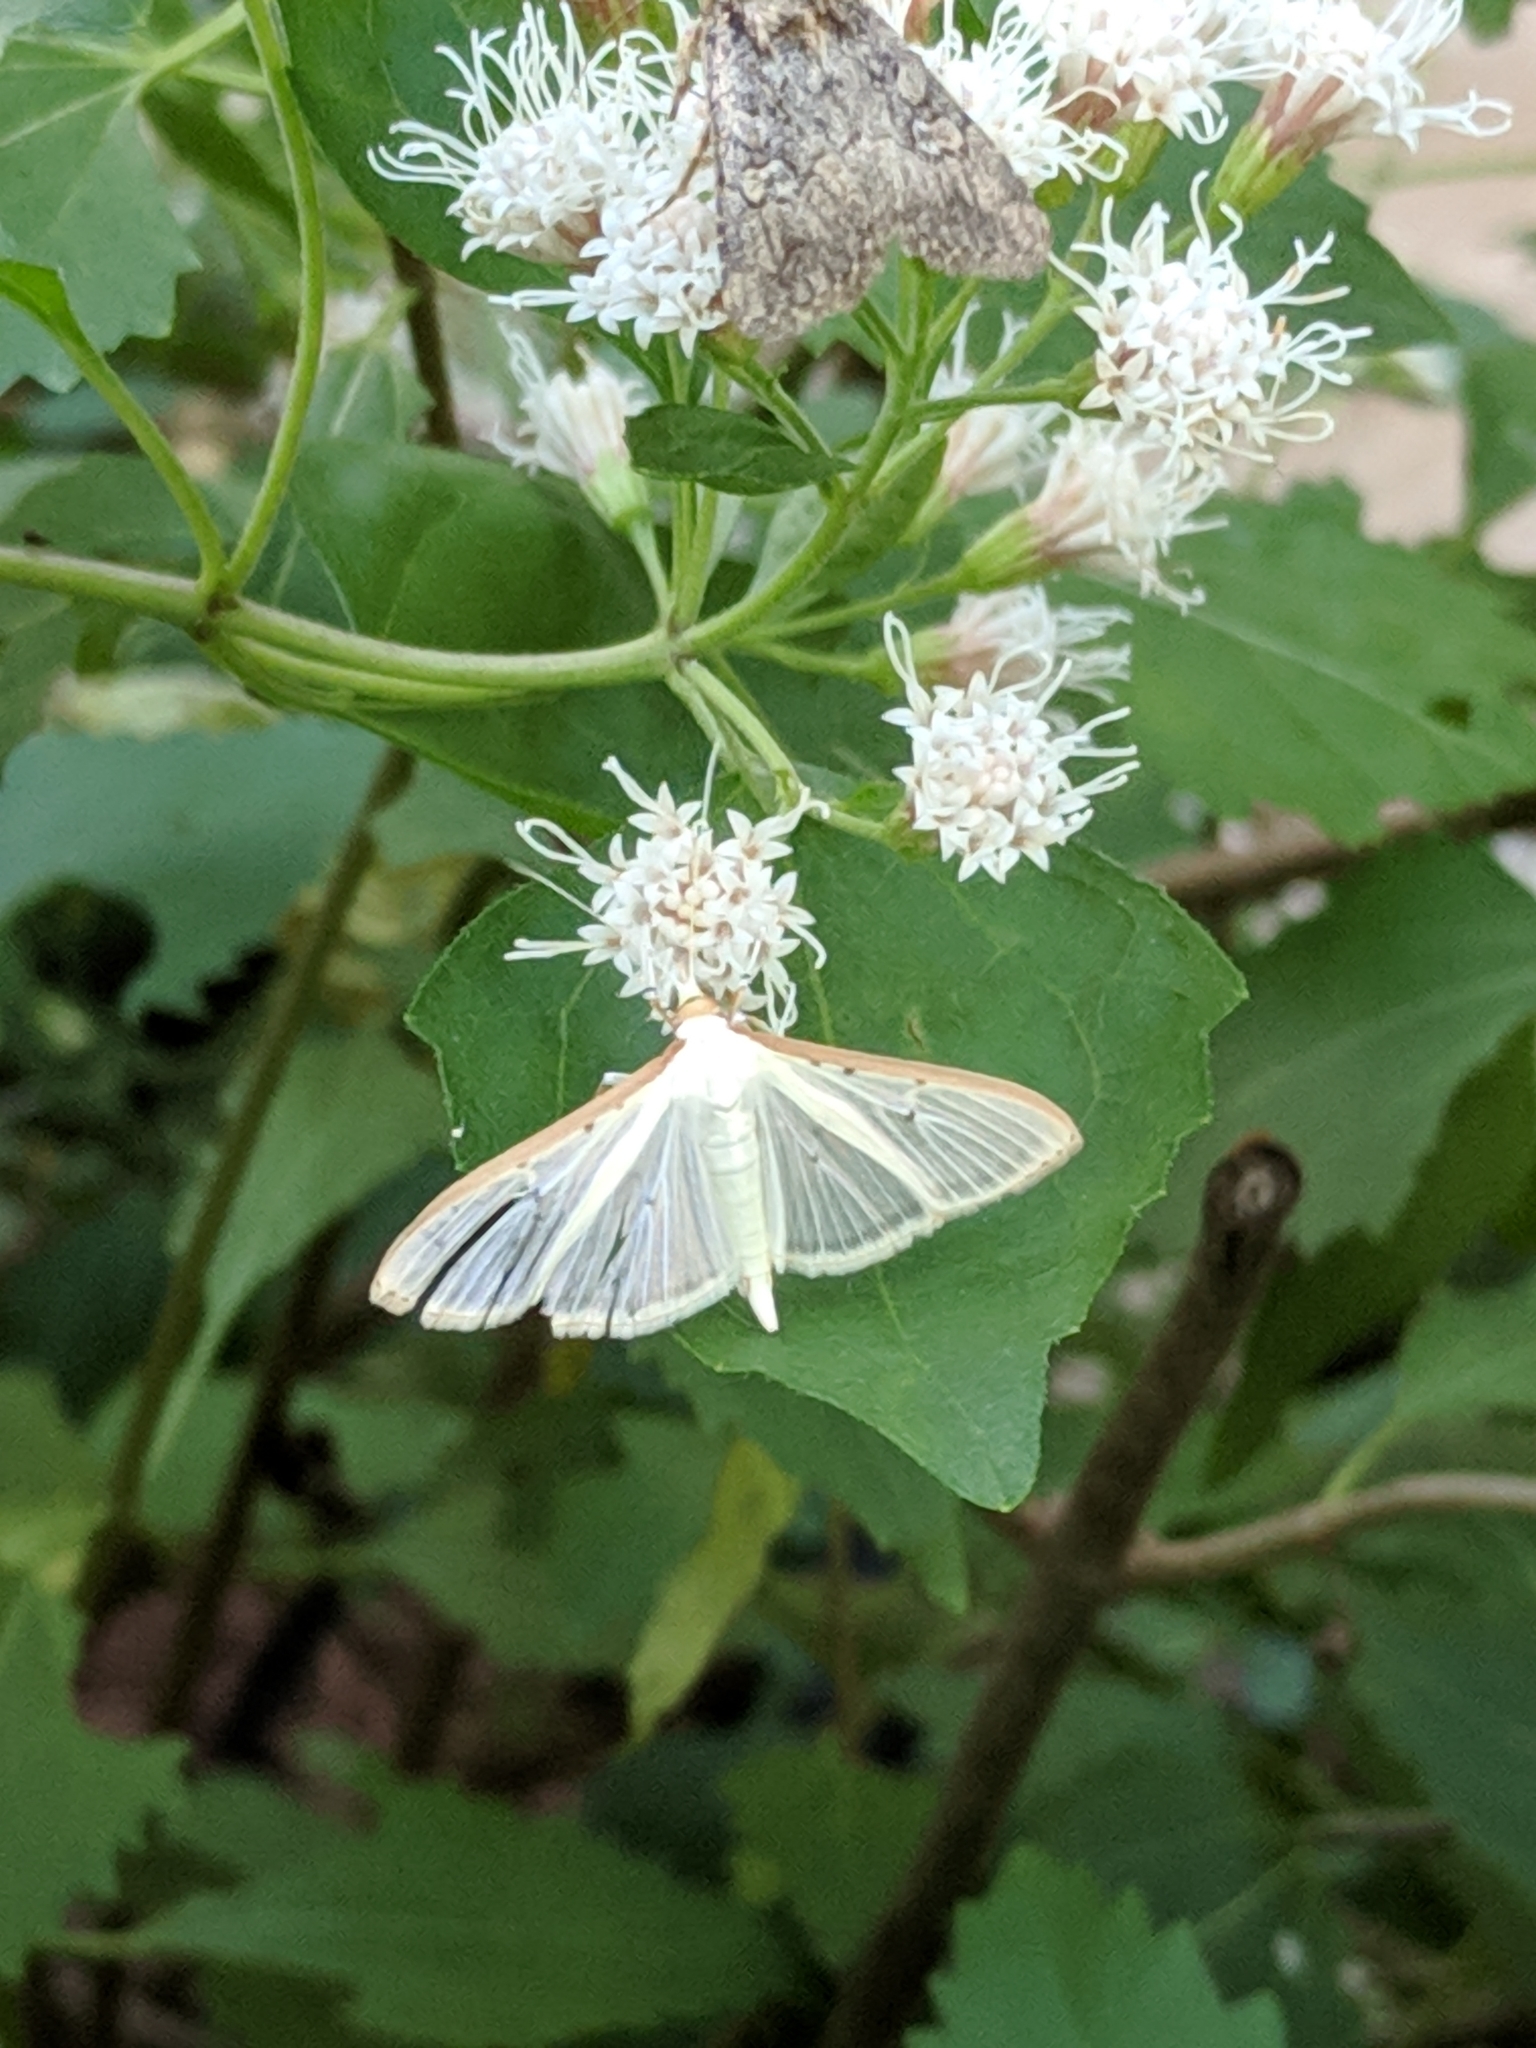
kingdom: Animalia
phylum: Arthropoda
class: Insecta
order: Lepidoptera
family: Crambidae
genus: Palpita
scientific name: Palpita quadristigmalis
